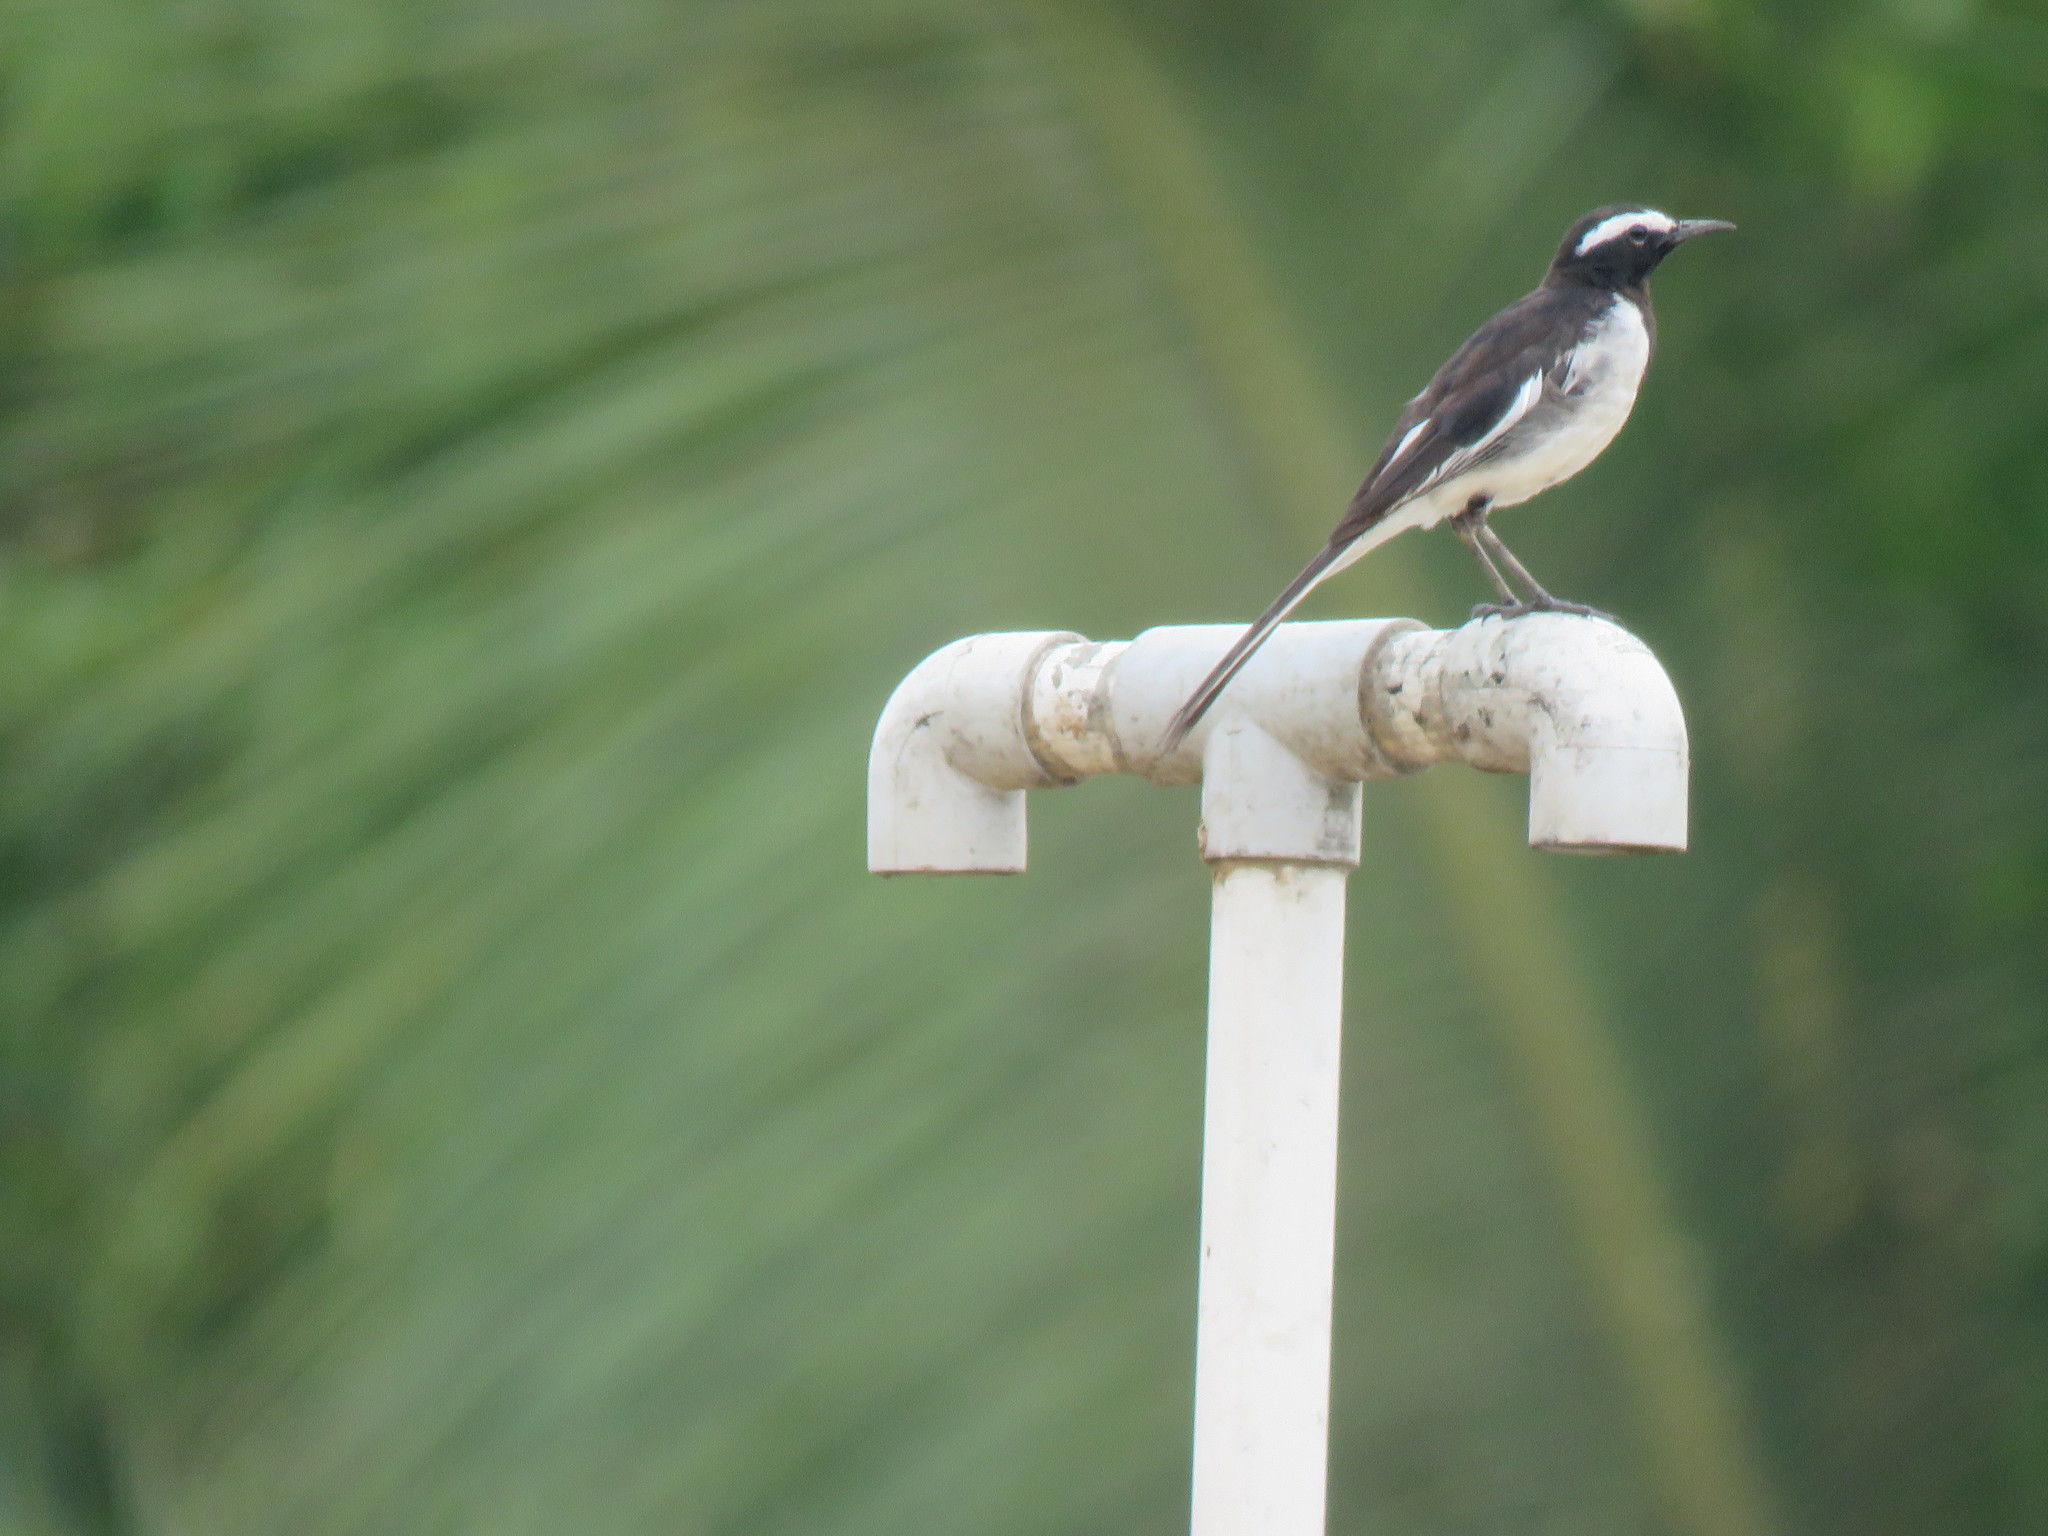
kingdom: Animalia
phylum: Chordata
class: Aves
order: Passeriformes
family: Motacillidae
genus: Motacilla
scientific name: Motacilla maderaspatensis
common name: White-browed wagtail
